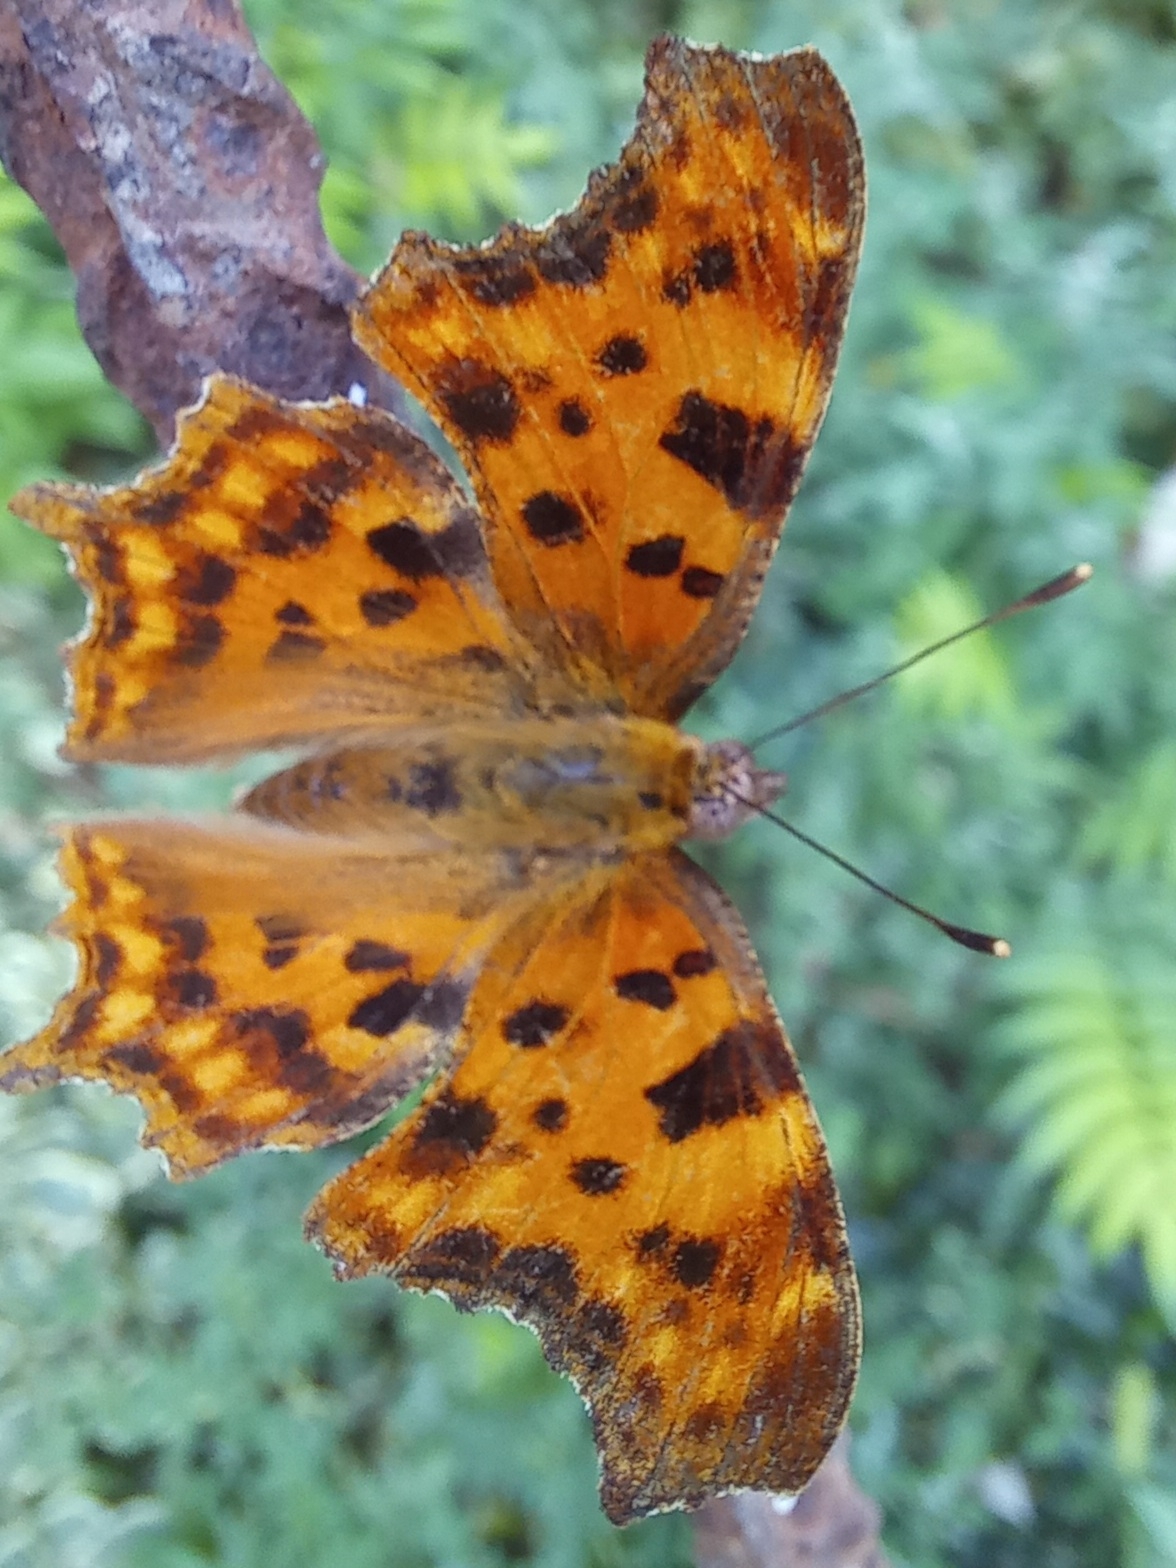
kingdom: Animalia
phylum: Arthropoda
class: Insecta
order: Lepidoptera
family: Nymphalidae
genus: Polygonia
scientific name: Polygonia c-album
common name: Comma
